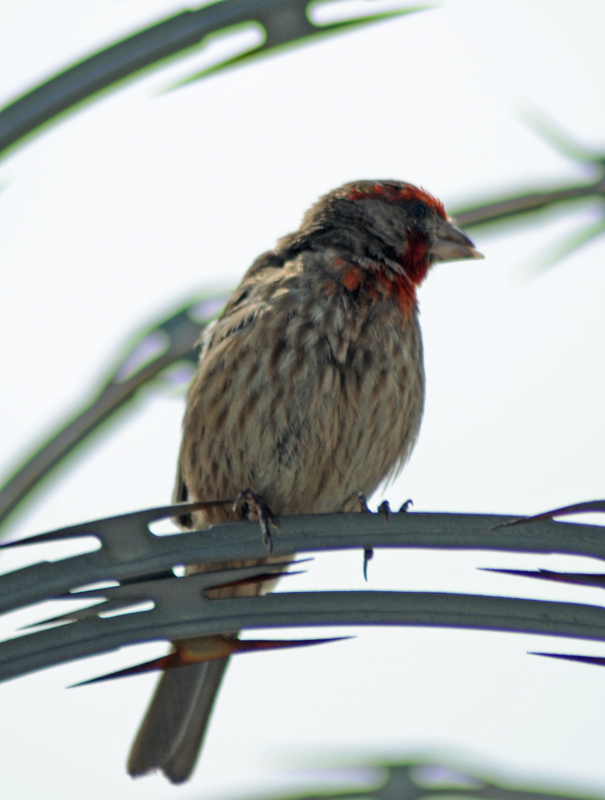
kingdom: Animalia
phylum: Chordata
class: Aves
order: Passeriformes
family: Fringillidae
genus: Haemorhous
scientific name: Haemorhous mexicanus
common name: House finch
